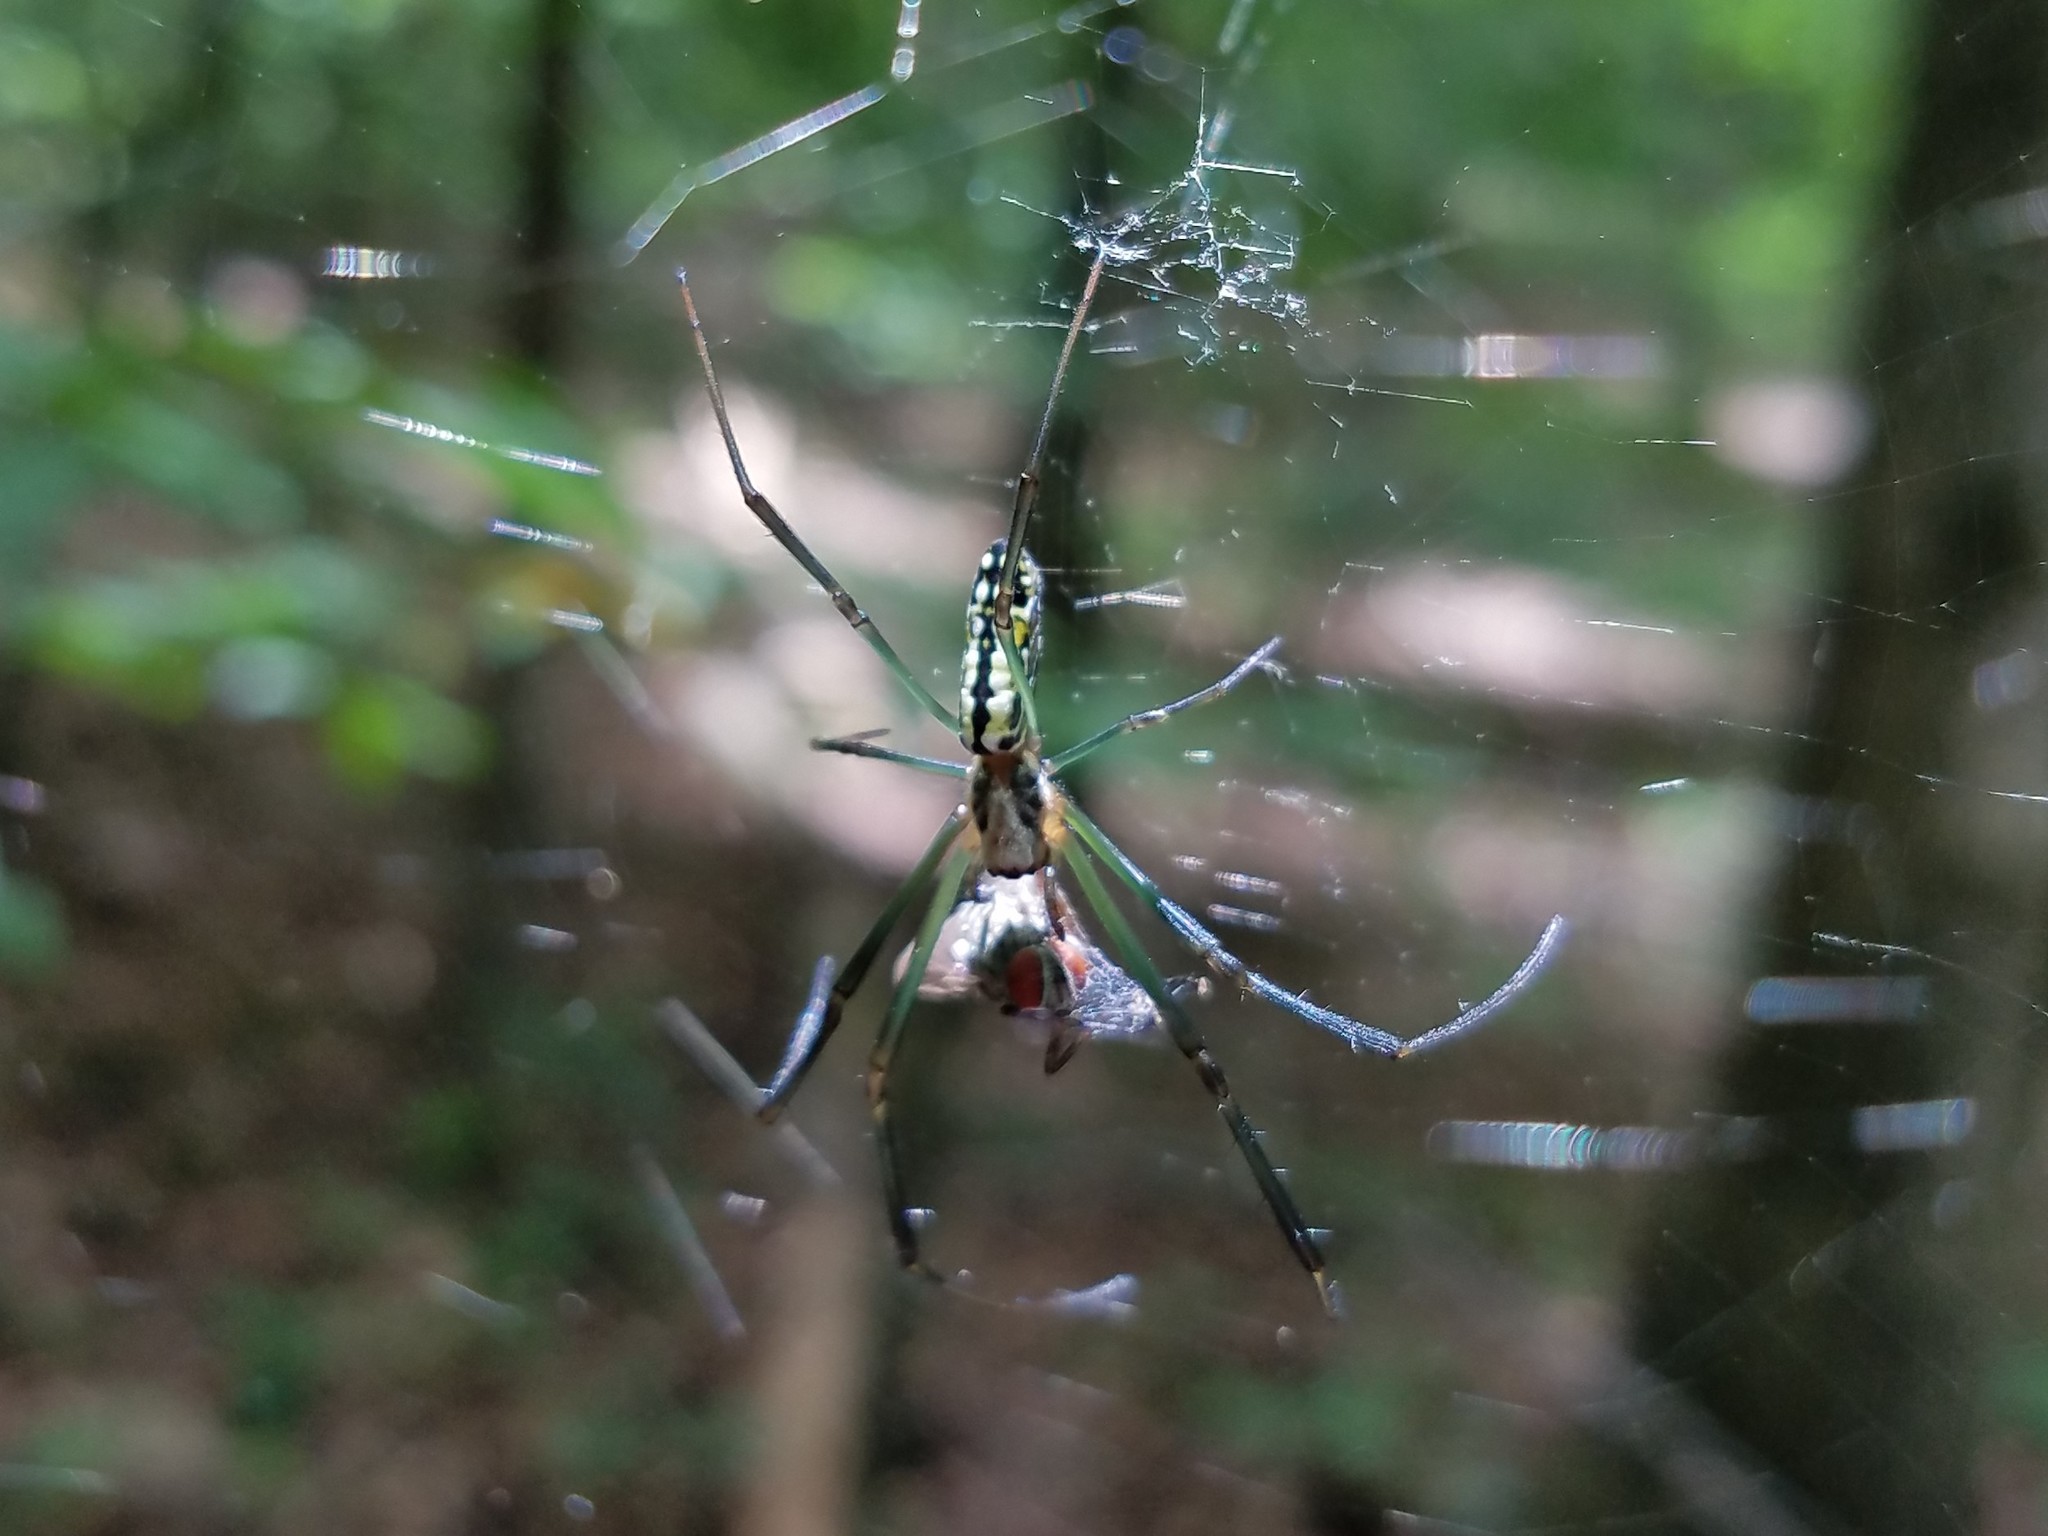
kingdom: Animalia
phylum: Arthropoda
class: Arachnida
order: Araneae
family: Araneidae
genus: Trichonephila
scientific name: Trichonephila clavata
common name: Jorō spider
